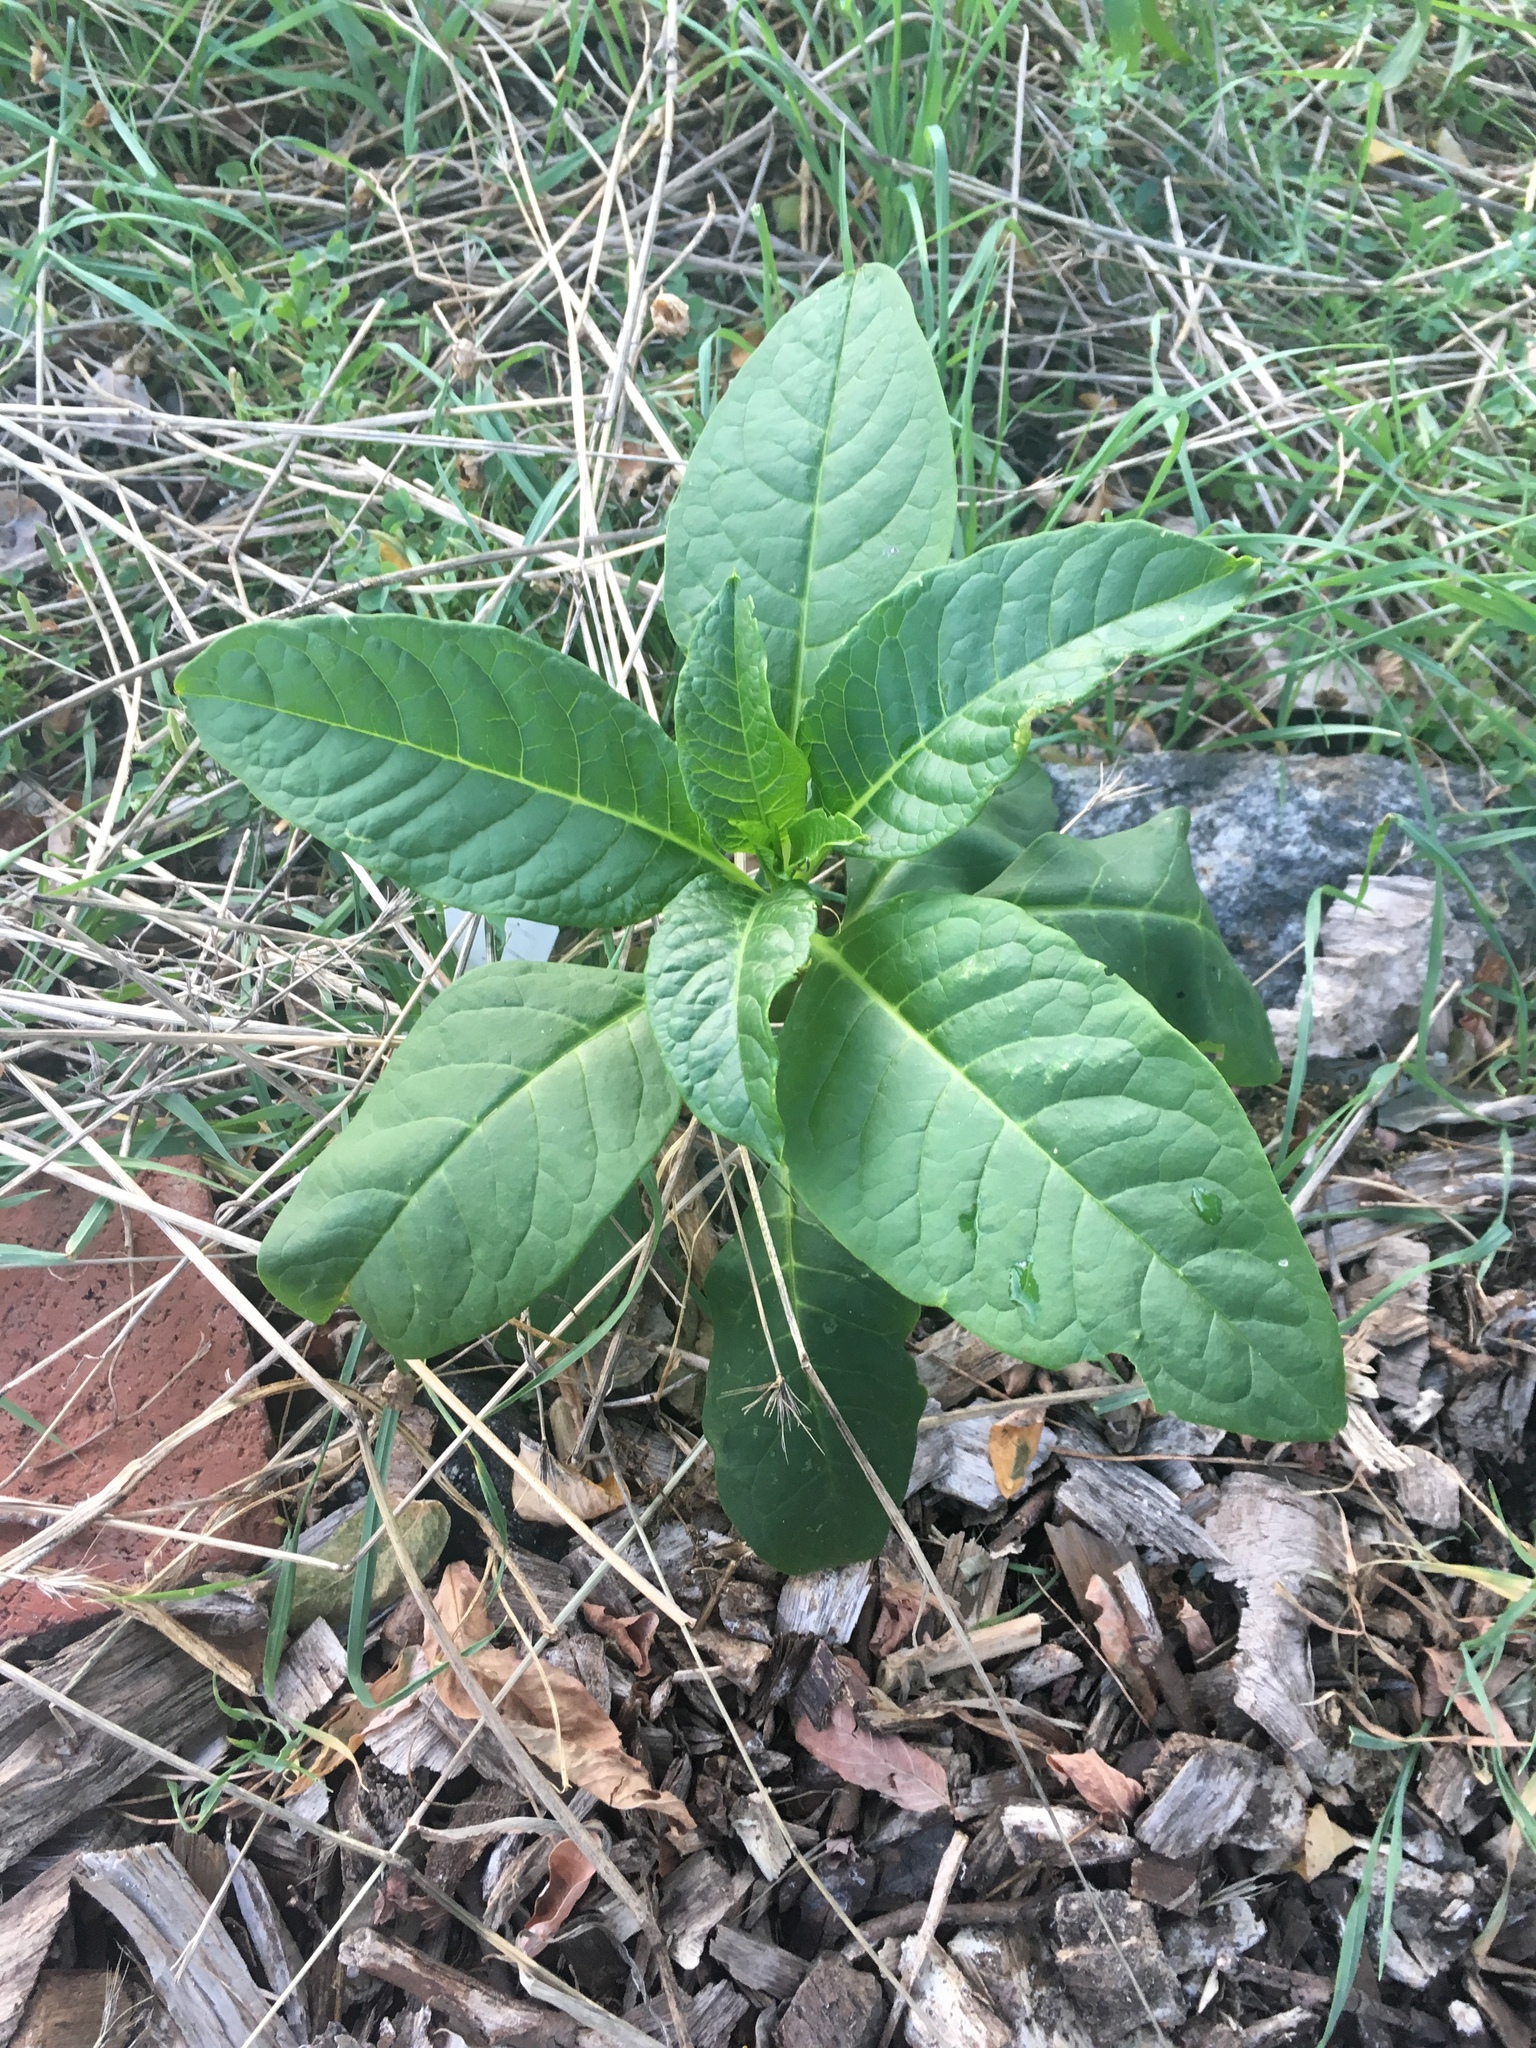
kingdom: Plantae
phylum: Tracheophyta
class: Magnoliopsida
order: Caryophyllales
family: Phytolaccaceae
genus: Phytolacca
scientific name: Phytolacca americana
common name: American pokeweed
